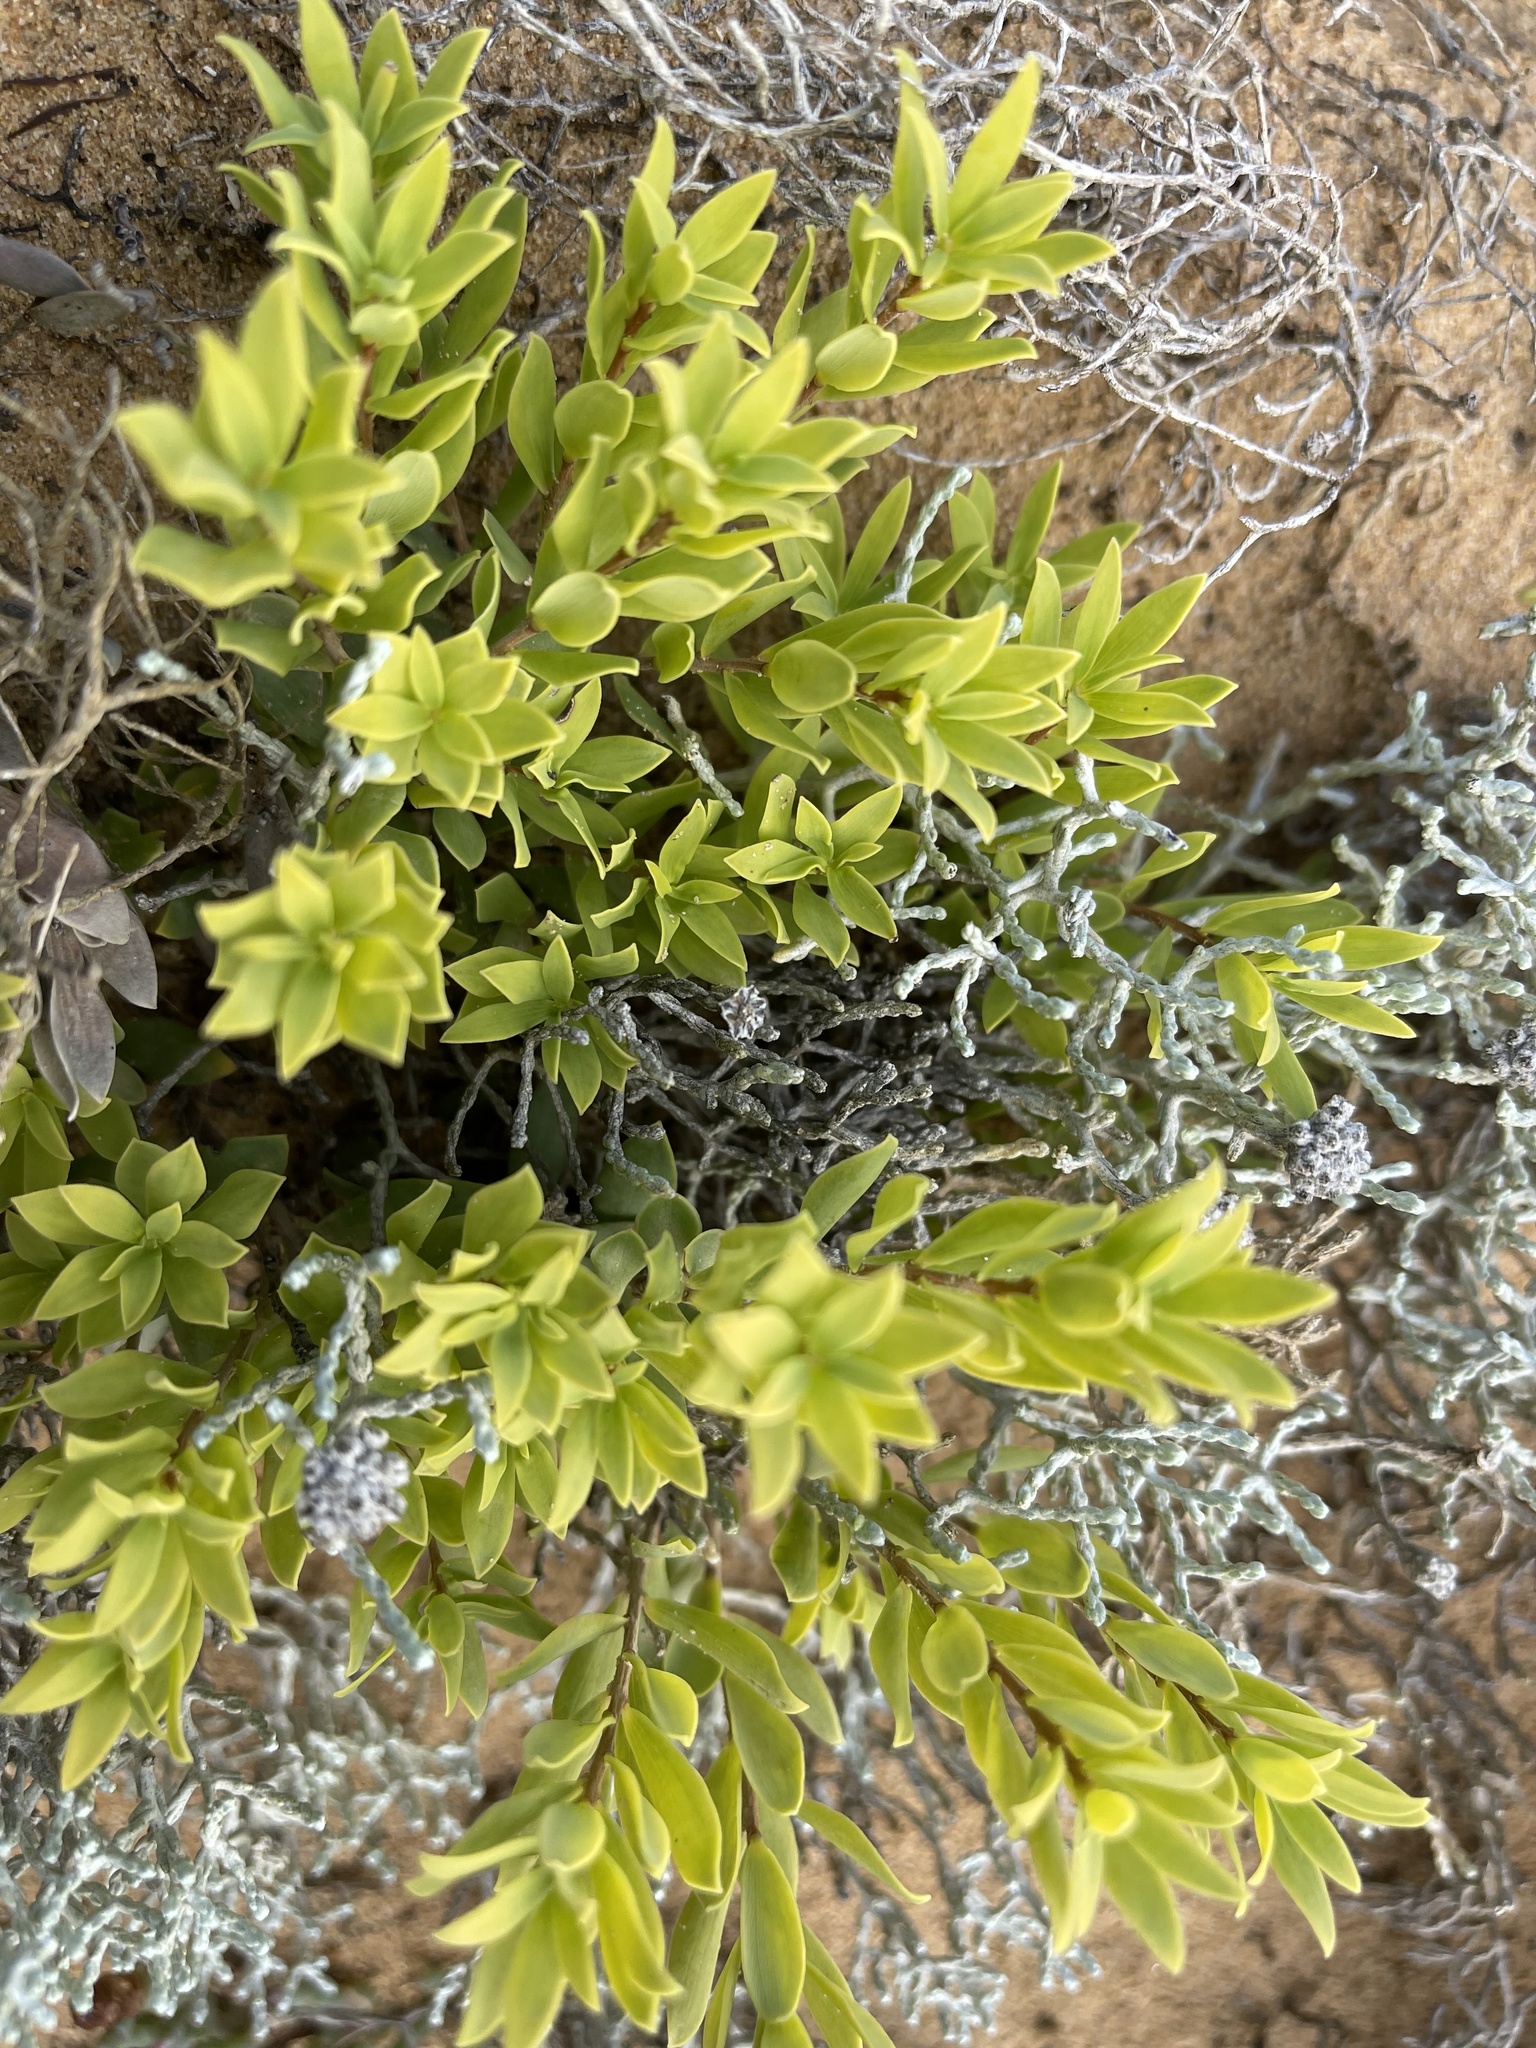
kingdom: Plantae
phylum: Tracheophyta
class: Magnoliopsida
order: Ericales
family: Ericaceae
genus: Leptecophylla
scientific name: Leptecophylla parvifolia
